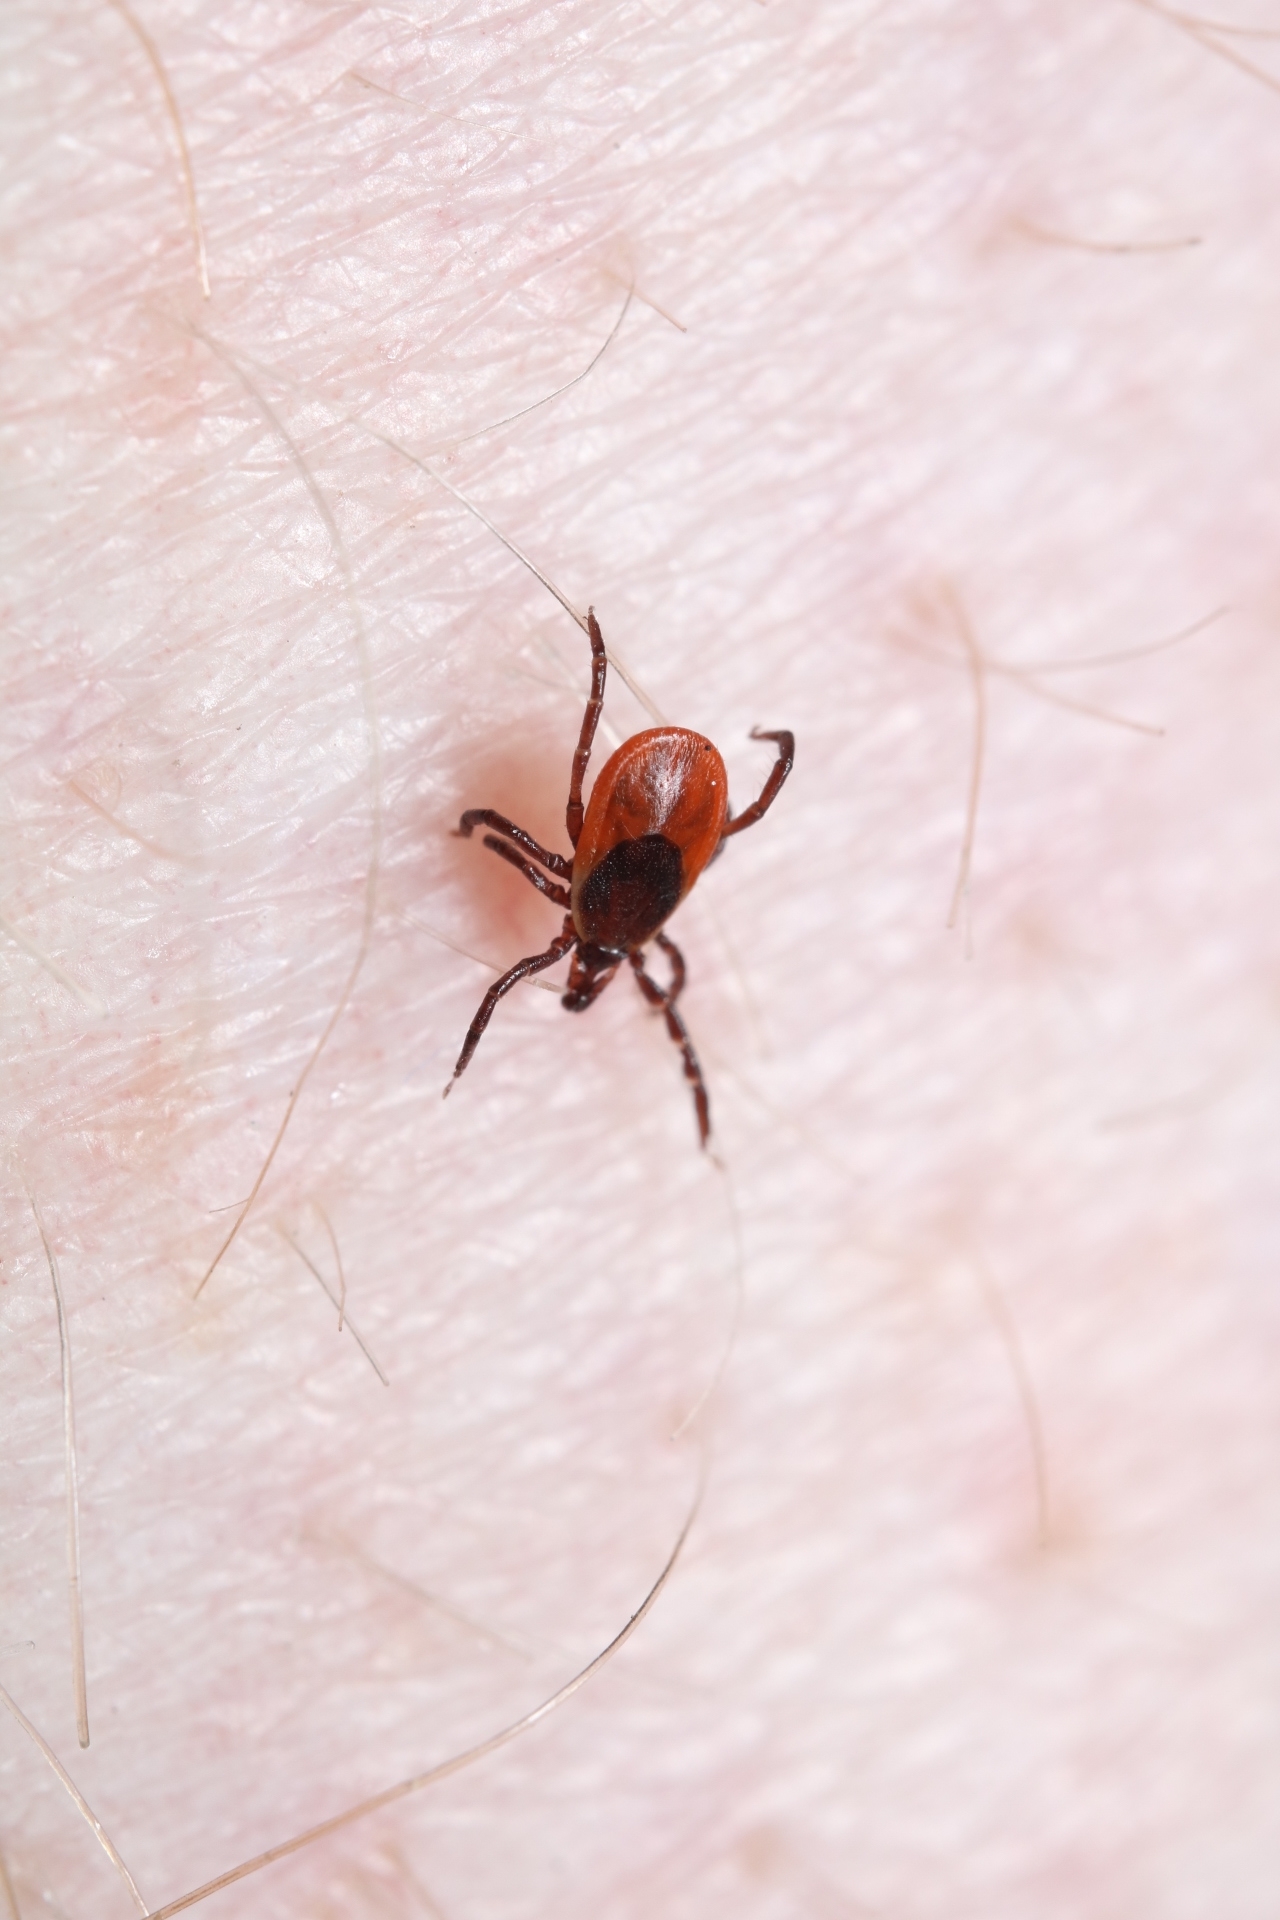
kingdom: Animalia
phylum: Arthropoda
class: Arachnida
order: Ixodida
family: Ixodidae
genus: Ixodes
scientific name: Ixodes scapularis
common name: Black legged tick
